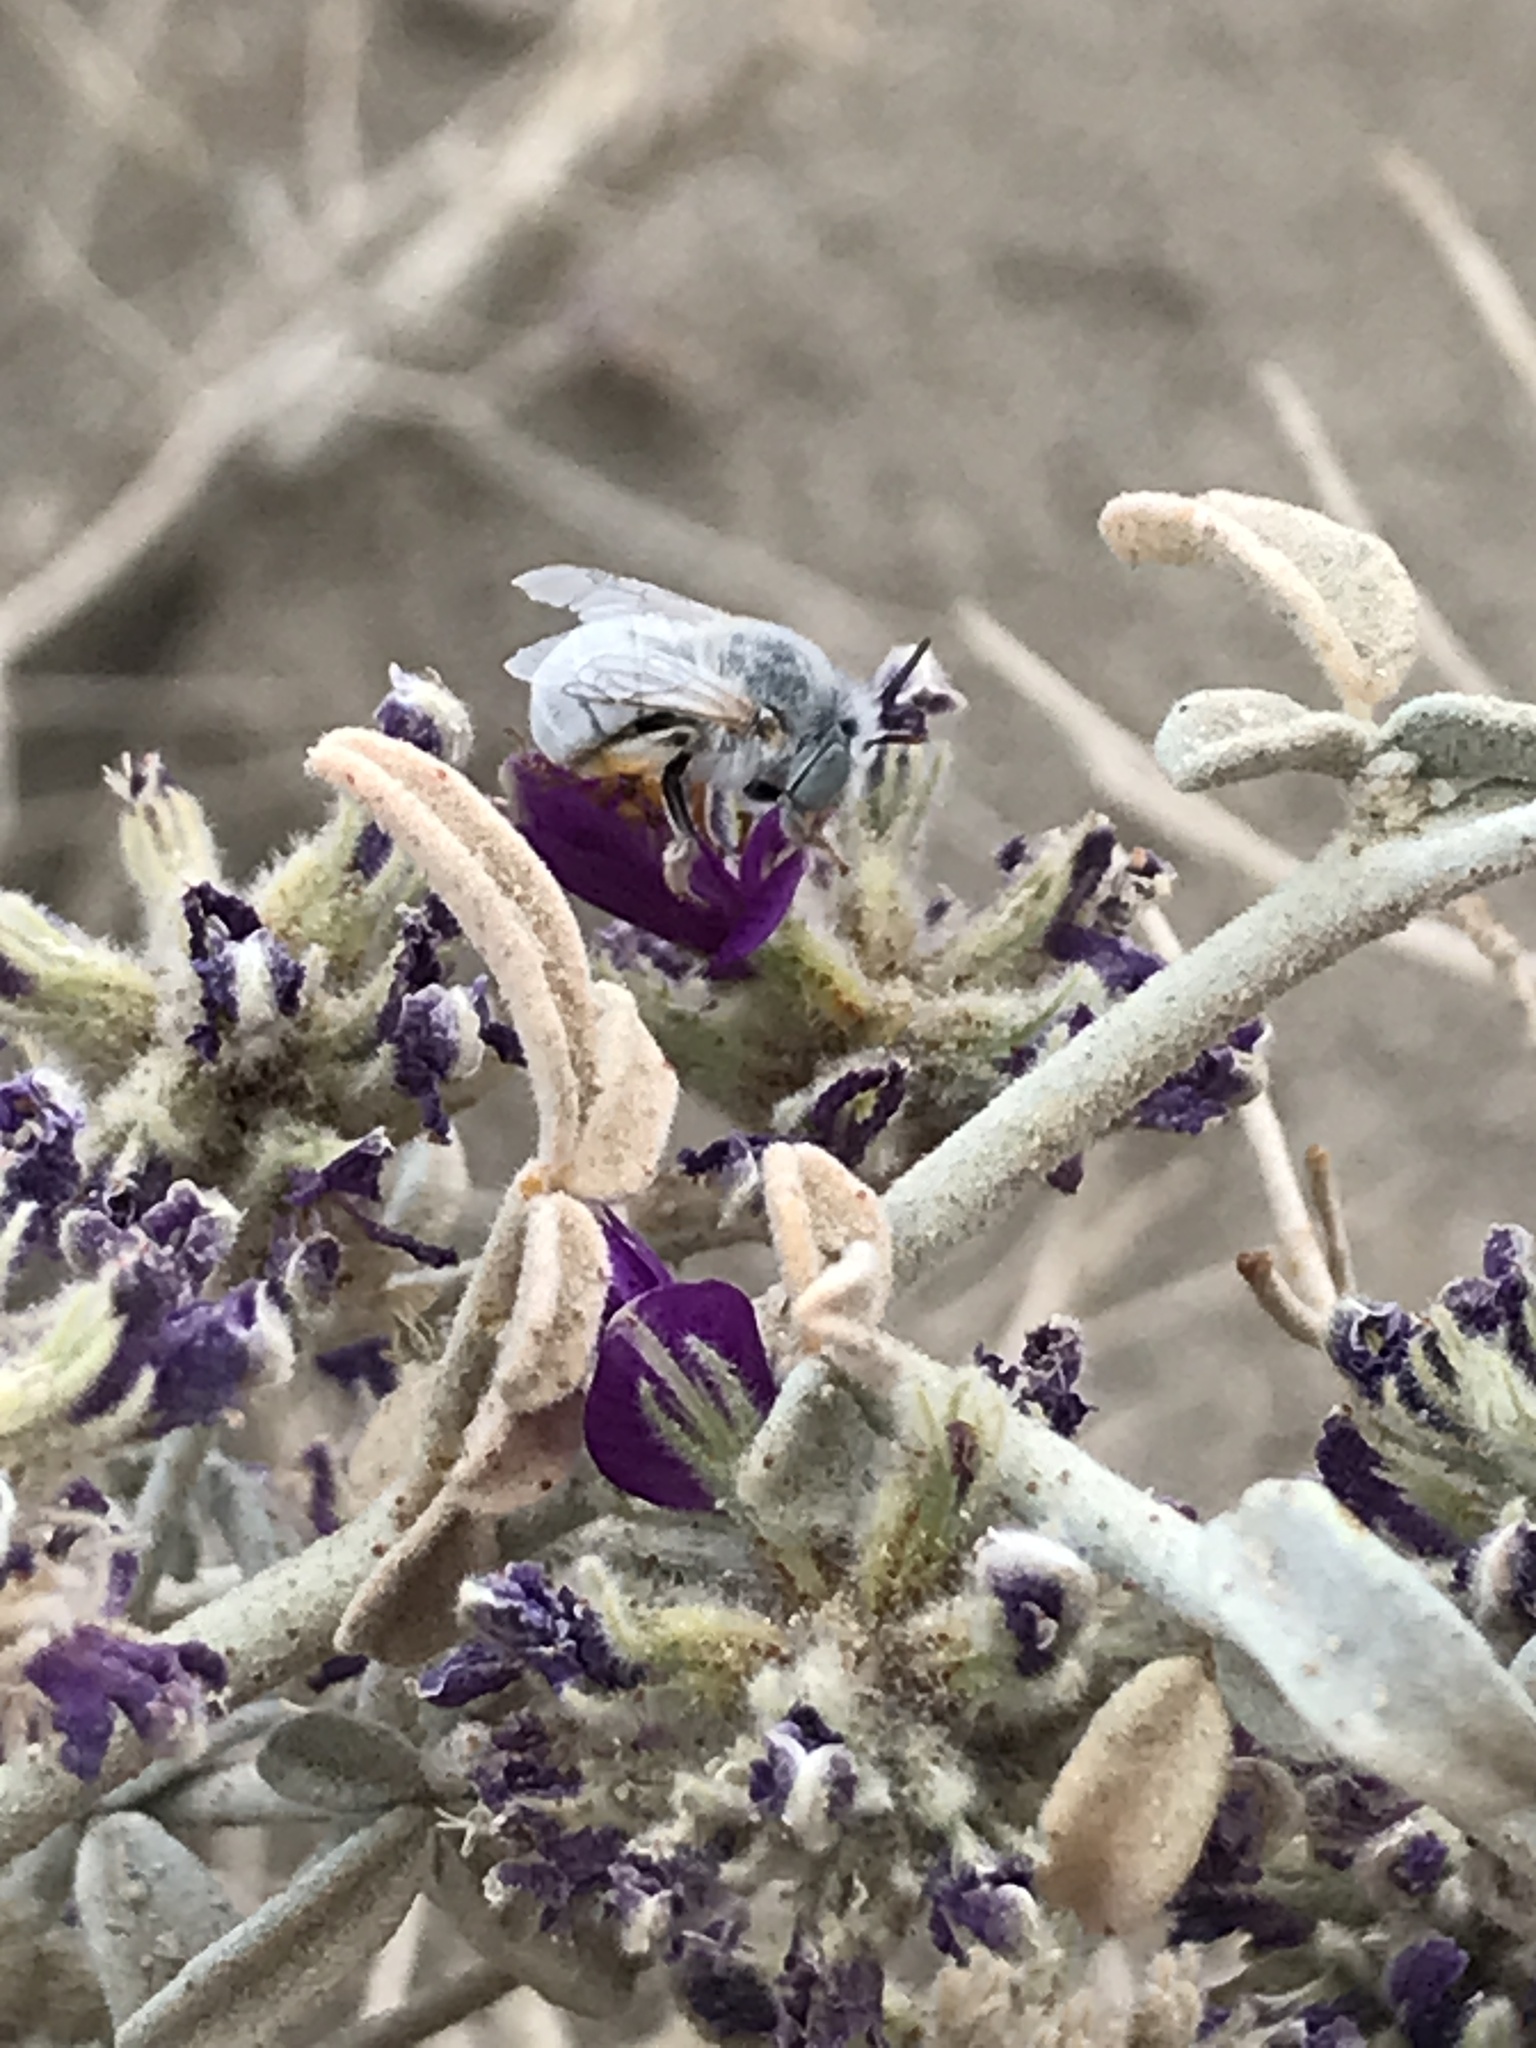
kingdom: Animalia
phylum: Arthropoda
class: Insecta
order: Hymenoptera
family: Apidae
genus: Anthophora
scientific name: Anthophora hololeuca
